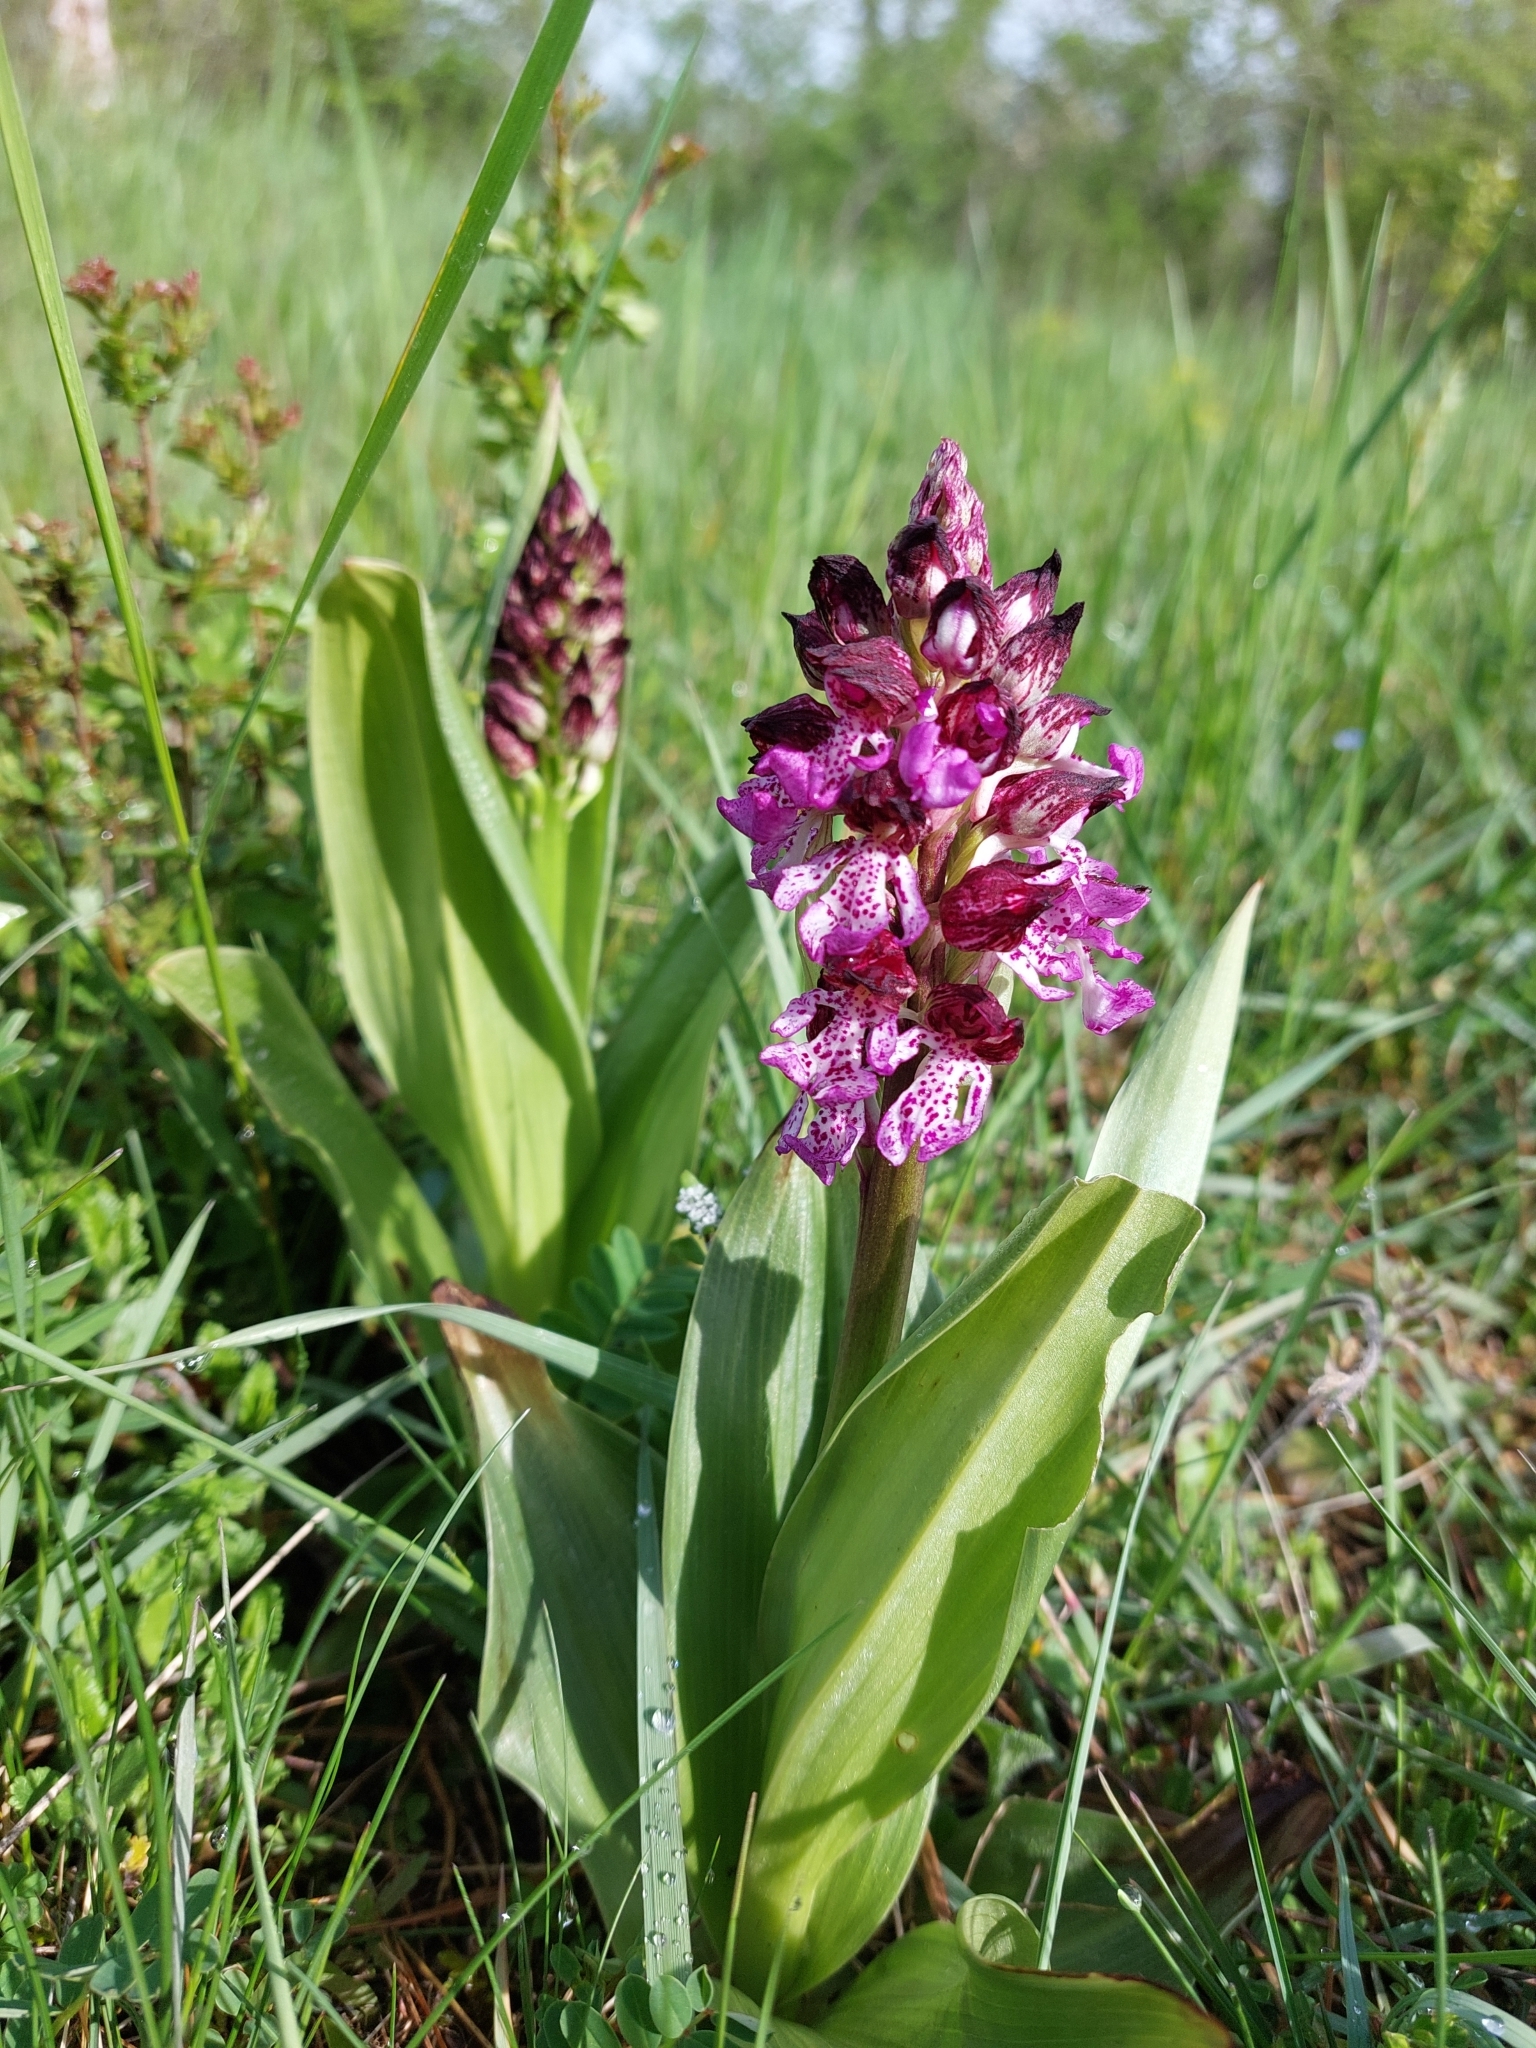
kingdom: Plantae
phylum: Tracheophyta
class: Liliopsida
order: Asparagales
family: Orchidaceae
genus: Orchis
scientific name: Orchis purpurea
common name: Lady orchid
